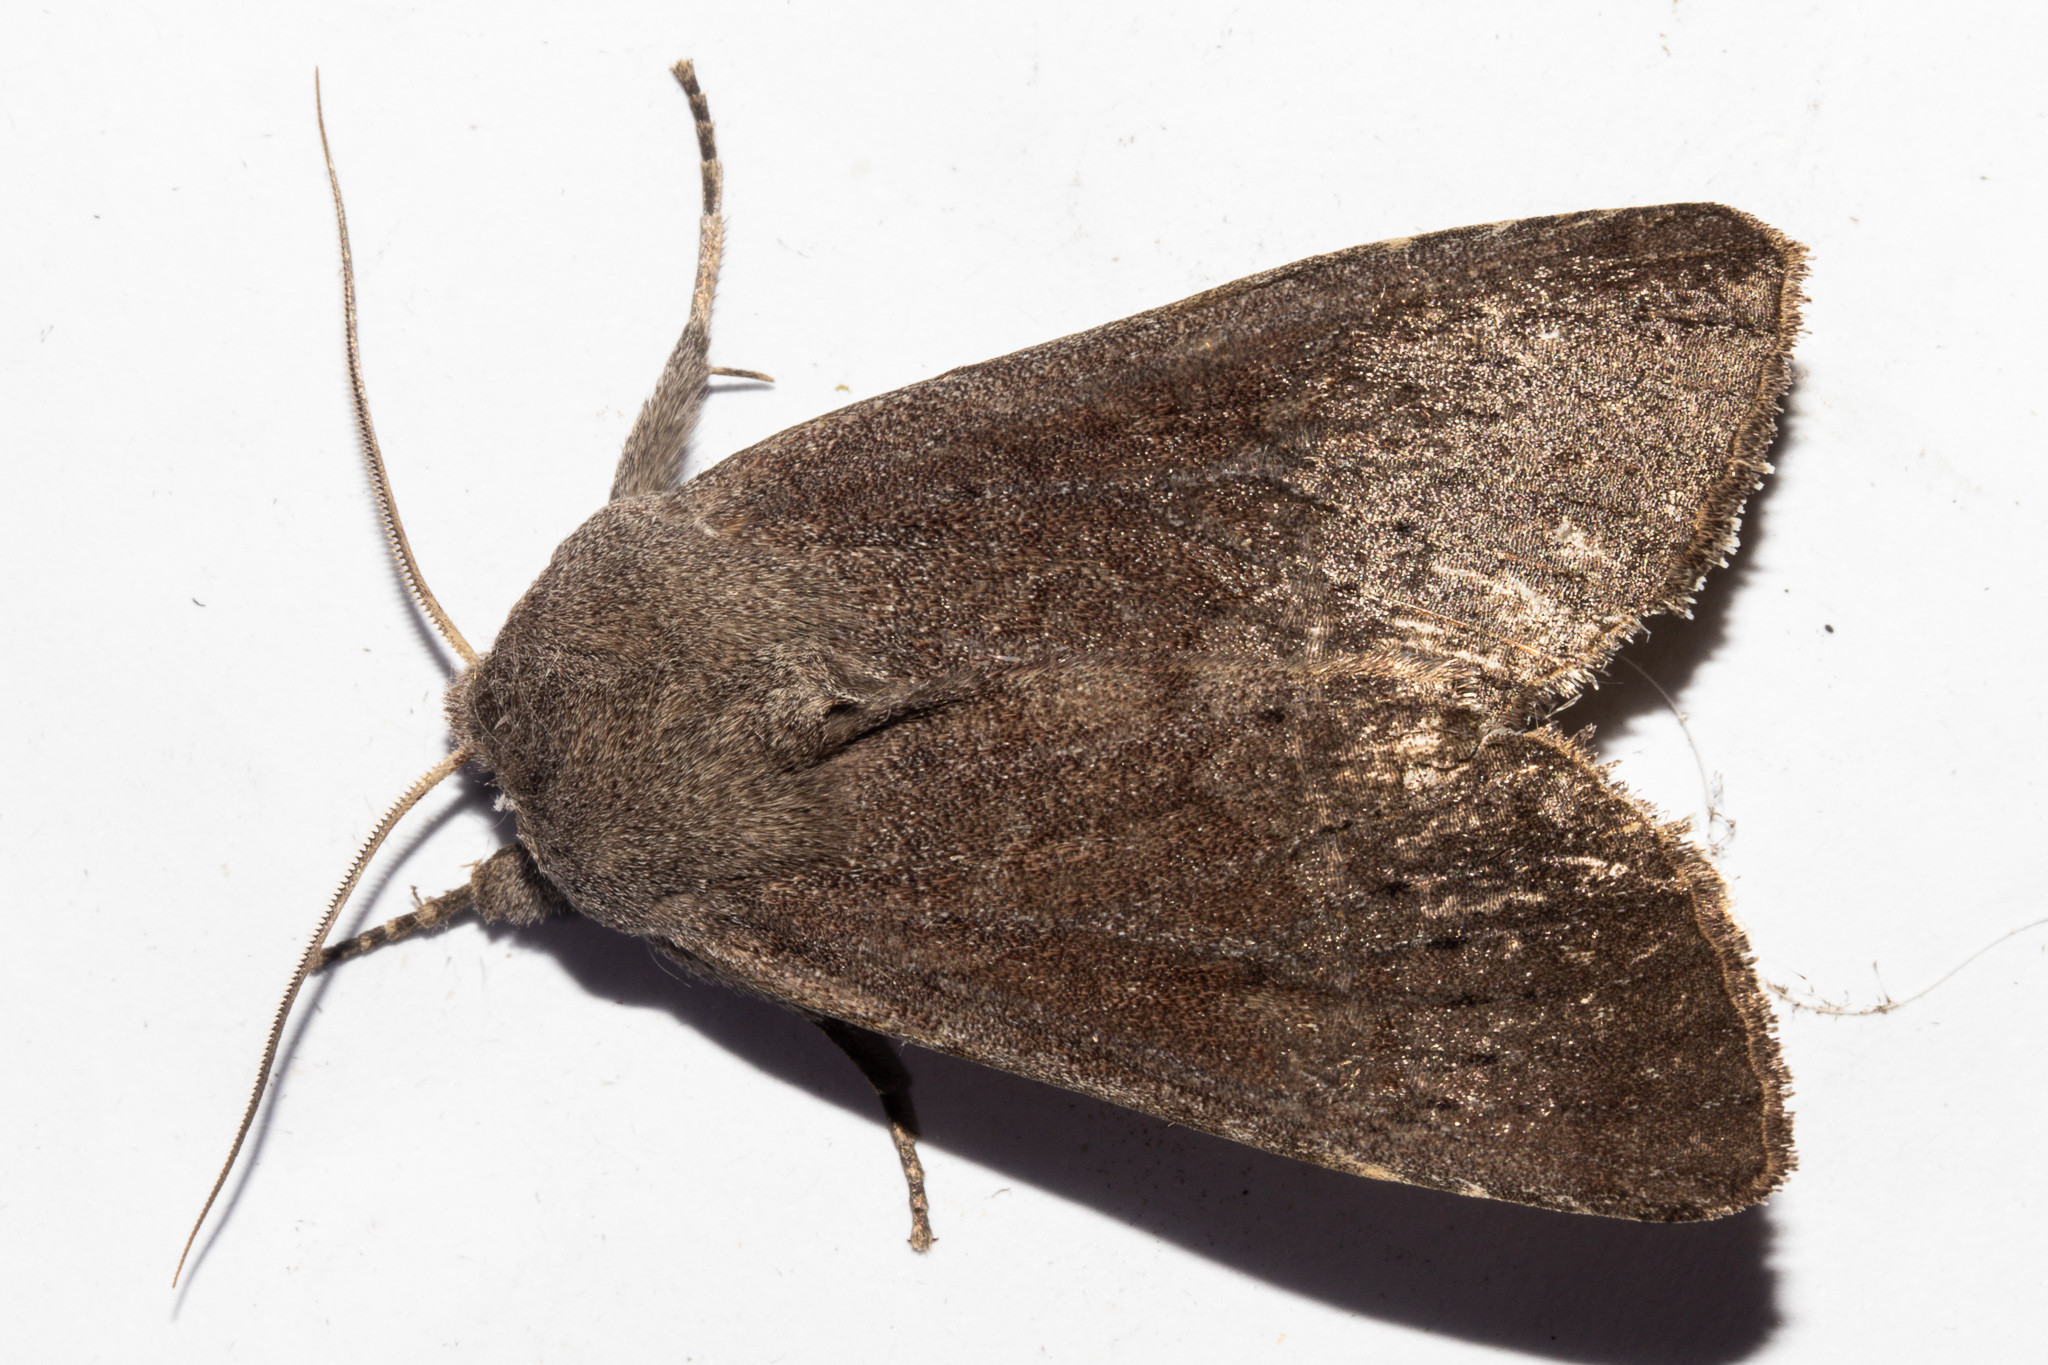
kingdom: Animalia
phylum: Arthropoda
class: Insecta
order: Lepidoptera
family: Noctuidae
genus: Ichneutica
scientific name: Ichneutica nullifera
